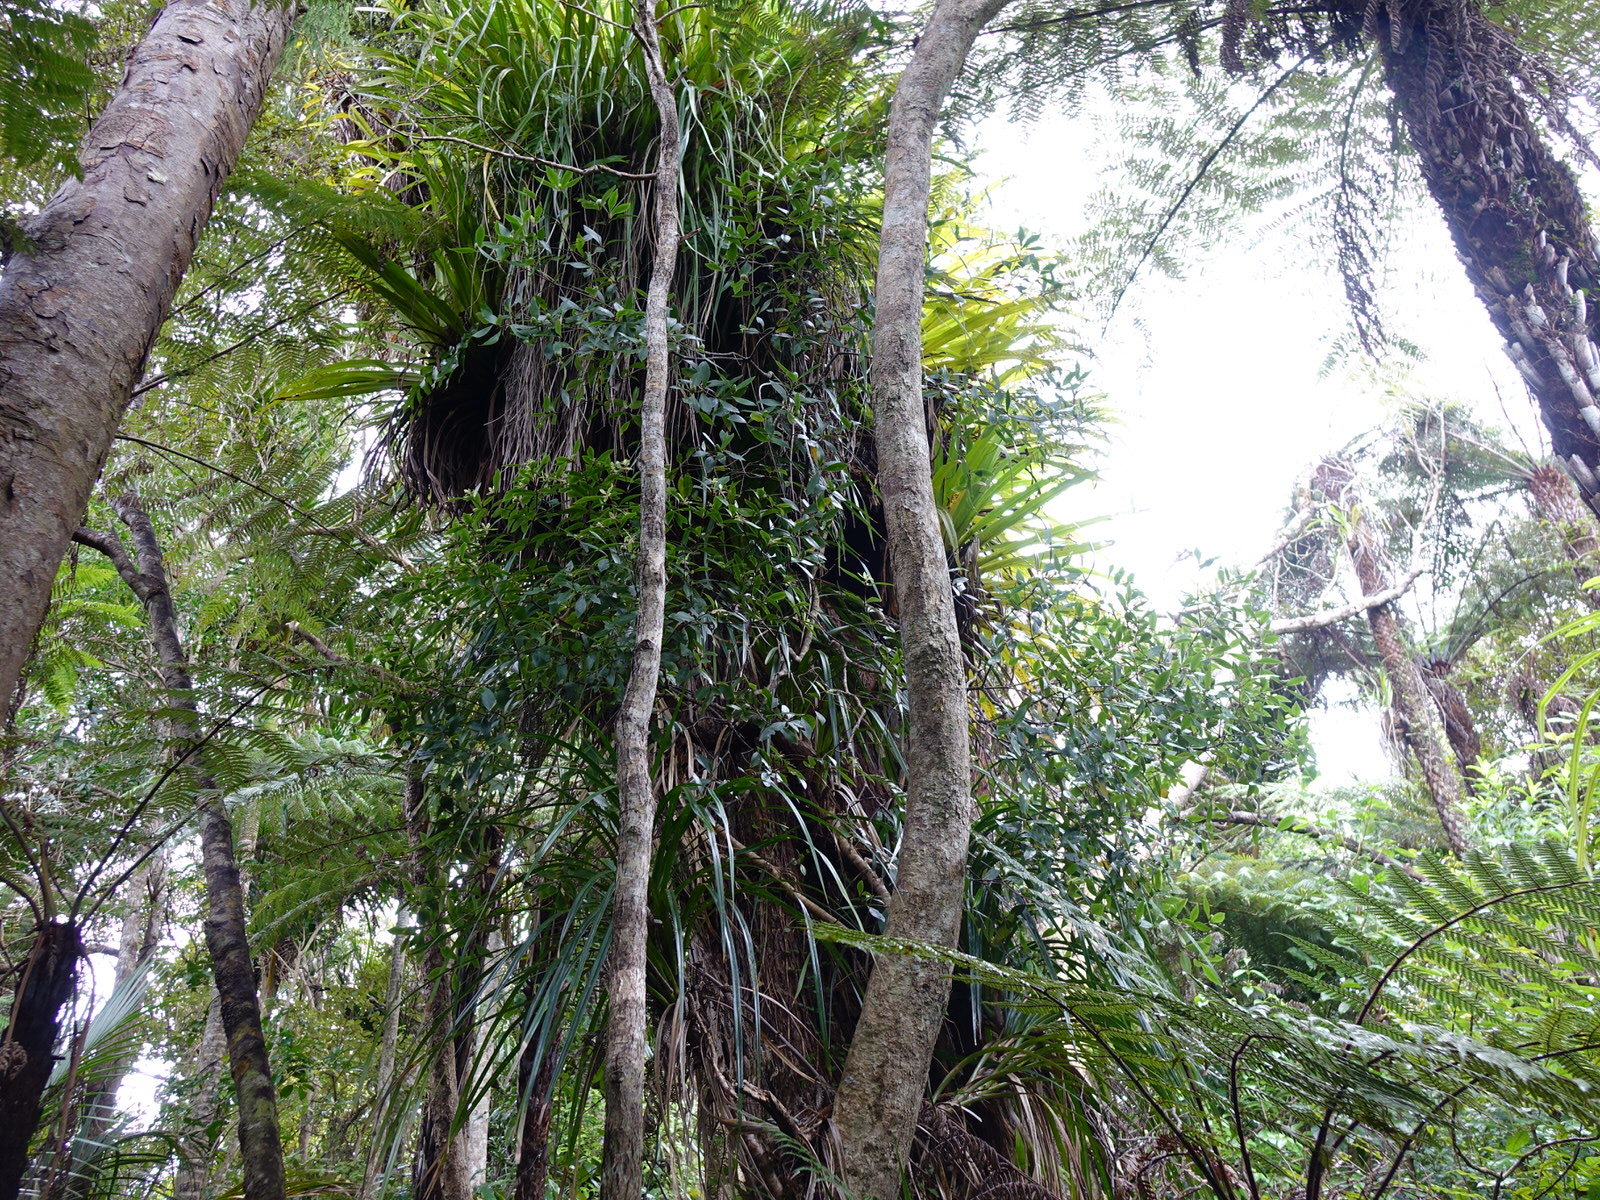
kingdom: Plantae
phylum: Tracheophyta
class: Magnoliopsida
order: Apiales
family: Pittosporaceae
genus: Pittosporum
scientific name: Pittosporum cornifolium
